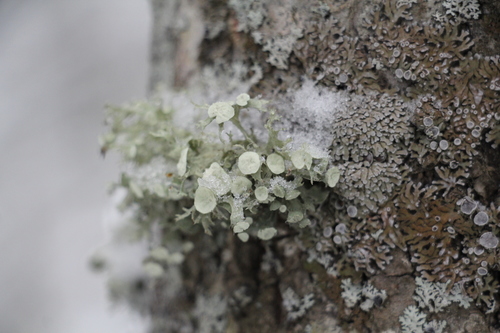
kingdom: Fungi
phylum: Ascomycota
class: Lecanoromycetes
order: Lecanorales
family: Ramalinaceae
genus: Ramalina
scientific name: Ramalina sinensis
